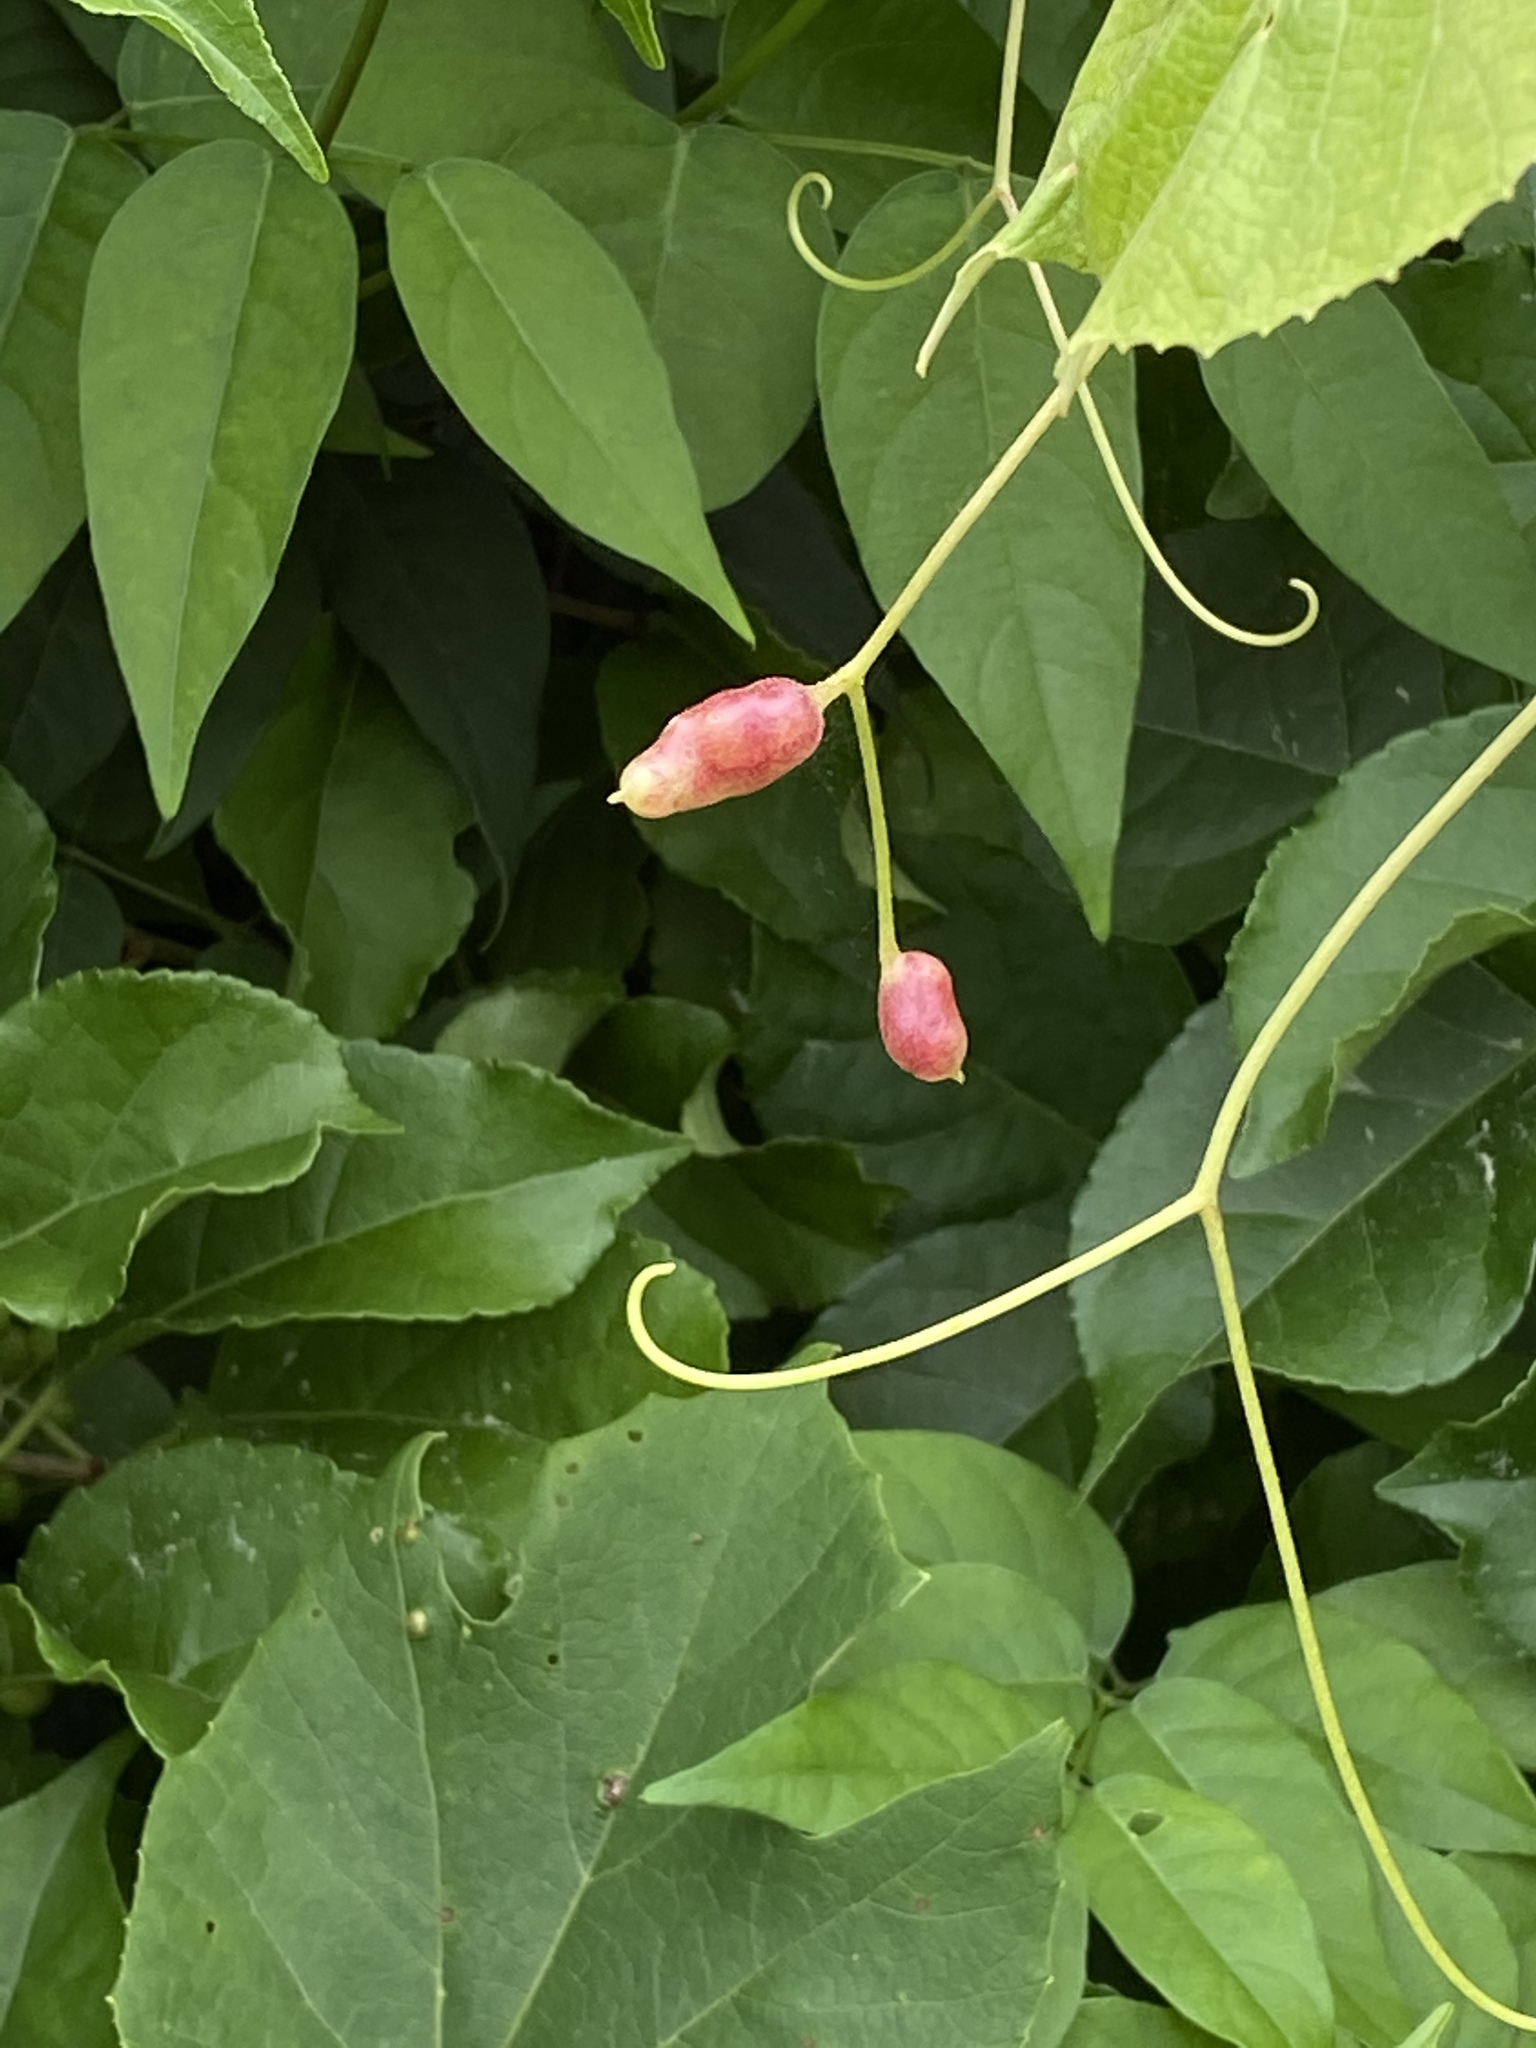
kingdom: Animalia
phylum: Arthropoda
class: Insecta
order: Diptera
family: Cecidomyiidae
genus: Vitisiella
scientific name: Vitisiella brevicauda
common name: Grape tumid gallmaker midge
